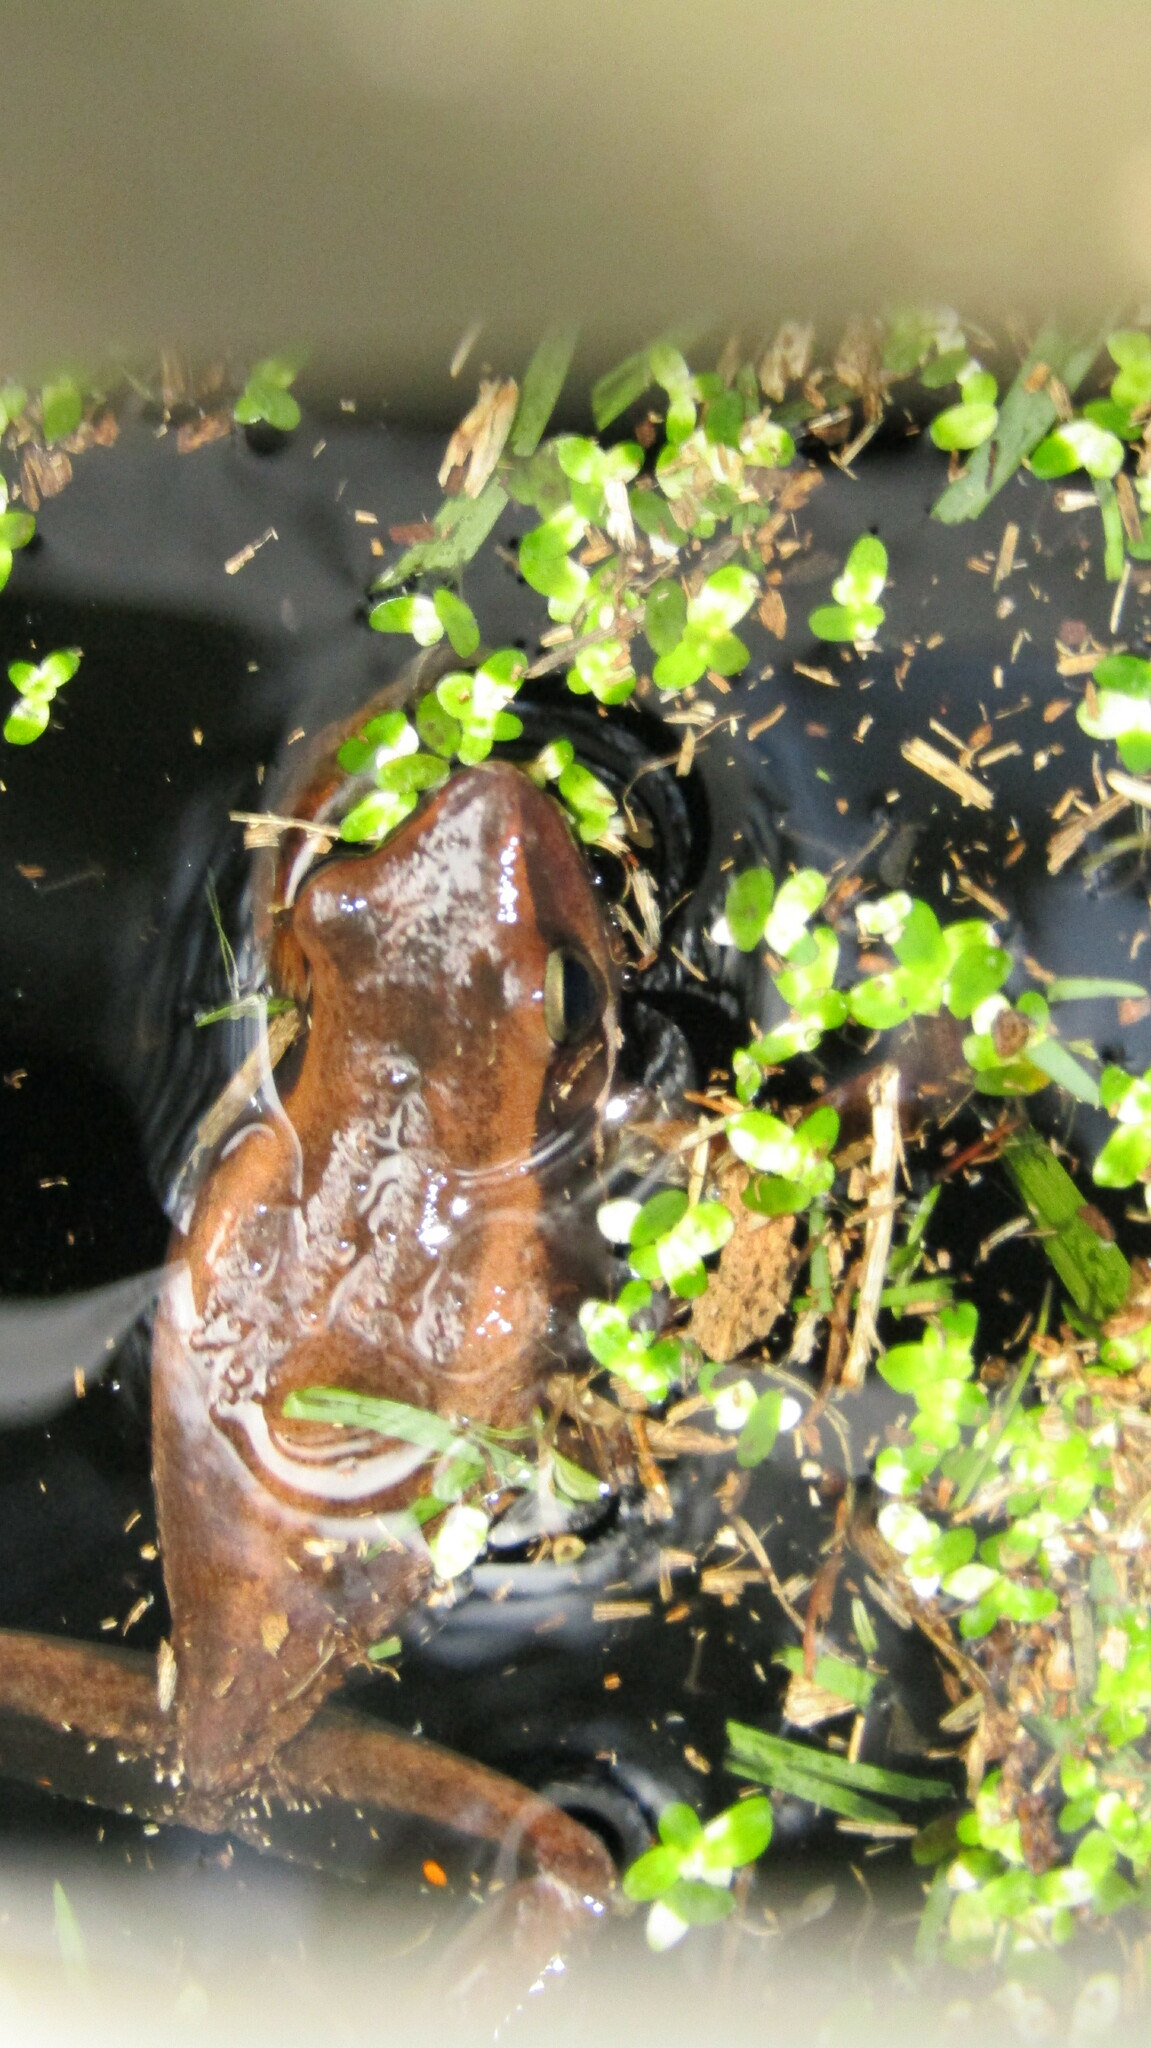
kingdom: Animalia
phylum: Chordata
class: Amphibia
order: Anura
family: Pelodryadidae
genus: Litoria
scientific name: Litoria adelaidensis
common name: Slender tree frog
